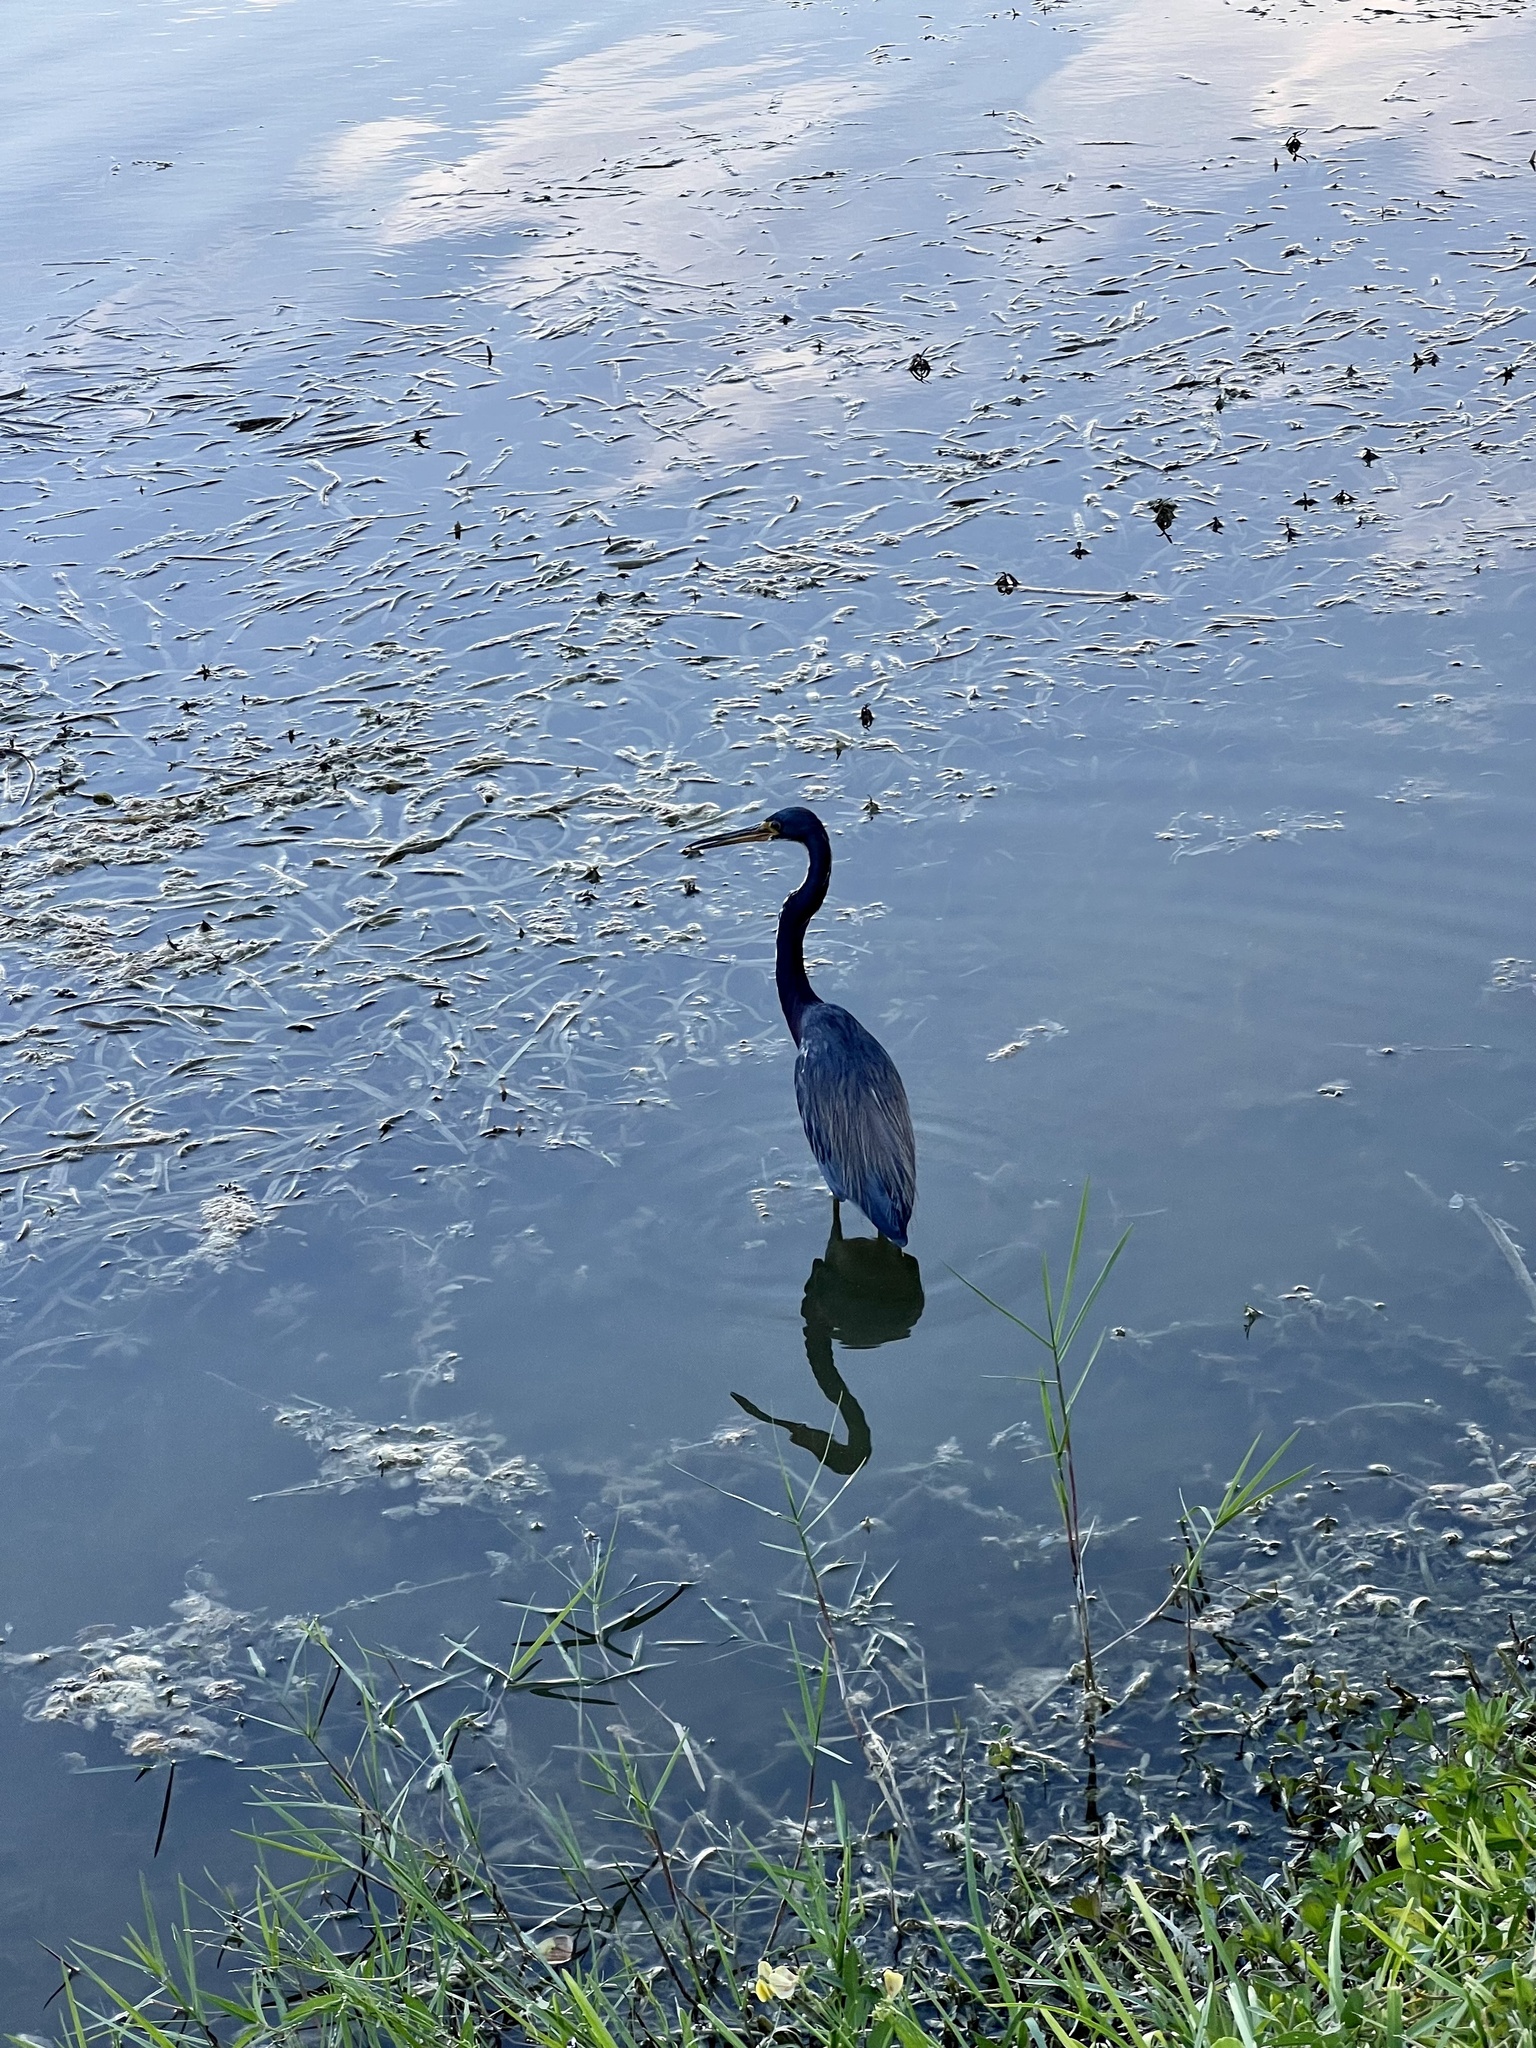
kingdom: Animalia
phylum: Chordata
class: Aves
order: Pelecaniformes
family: Ardeidae
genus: Egretta
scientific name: Egretta tricolor
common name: Tricolored heron
